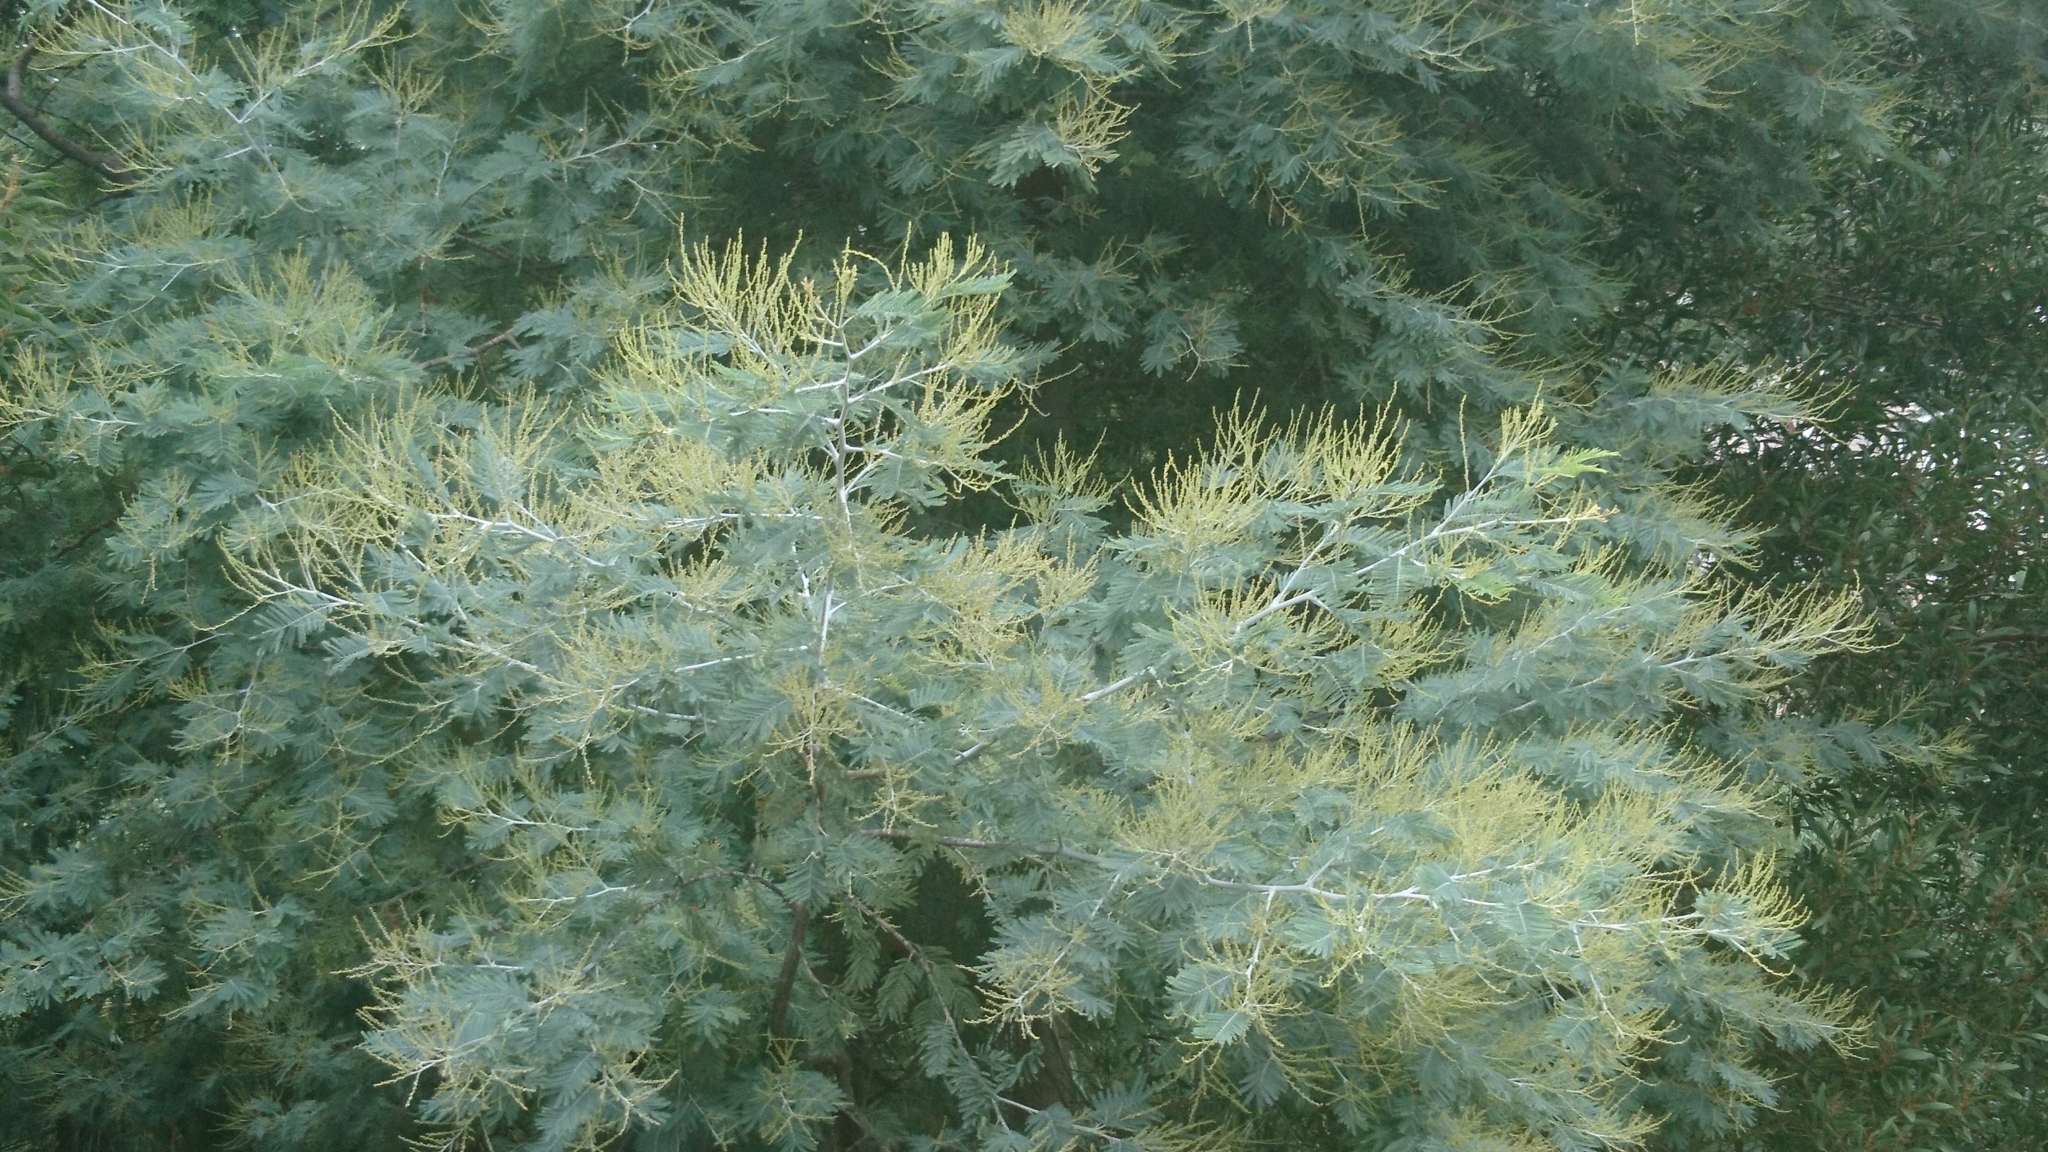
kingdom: Plantae
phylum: Tracheophyta
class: Magnoliopsida
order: Fabales
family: Fabaceae
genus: Acacia
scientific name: Acacia dealbata
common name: Silver wattle
